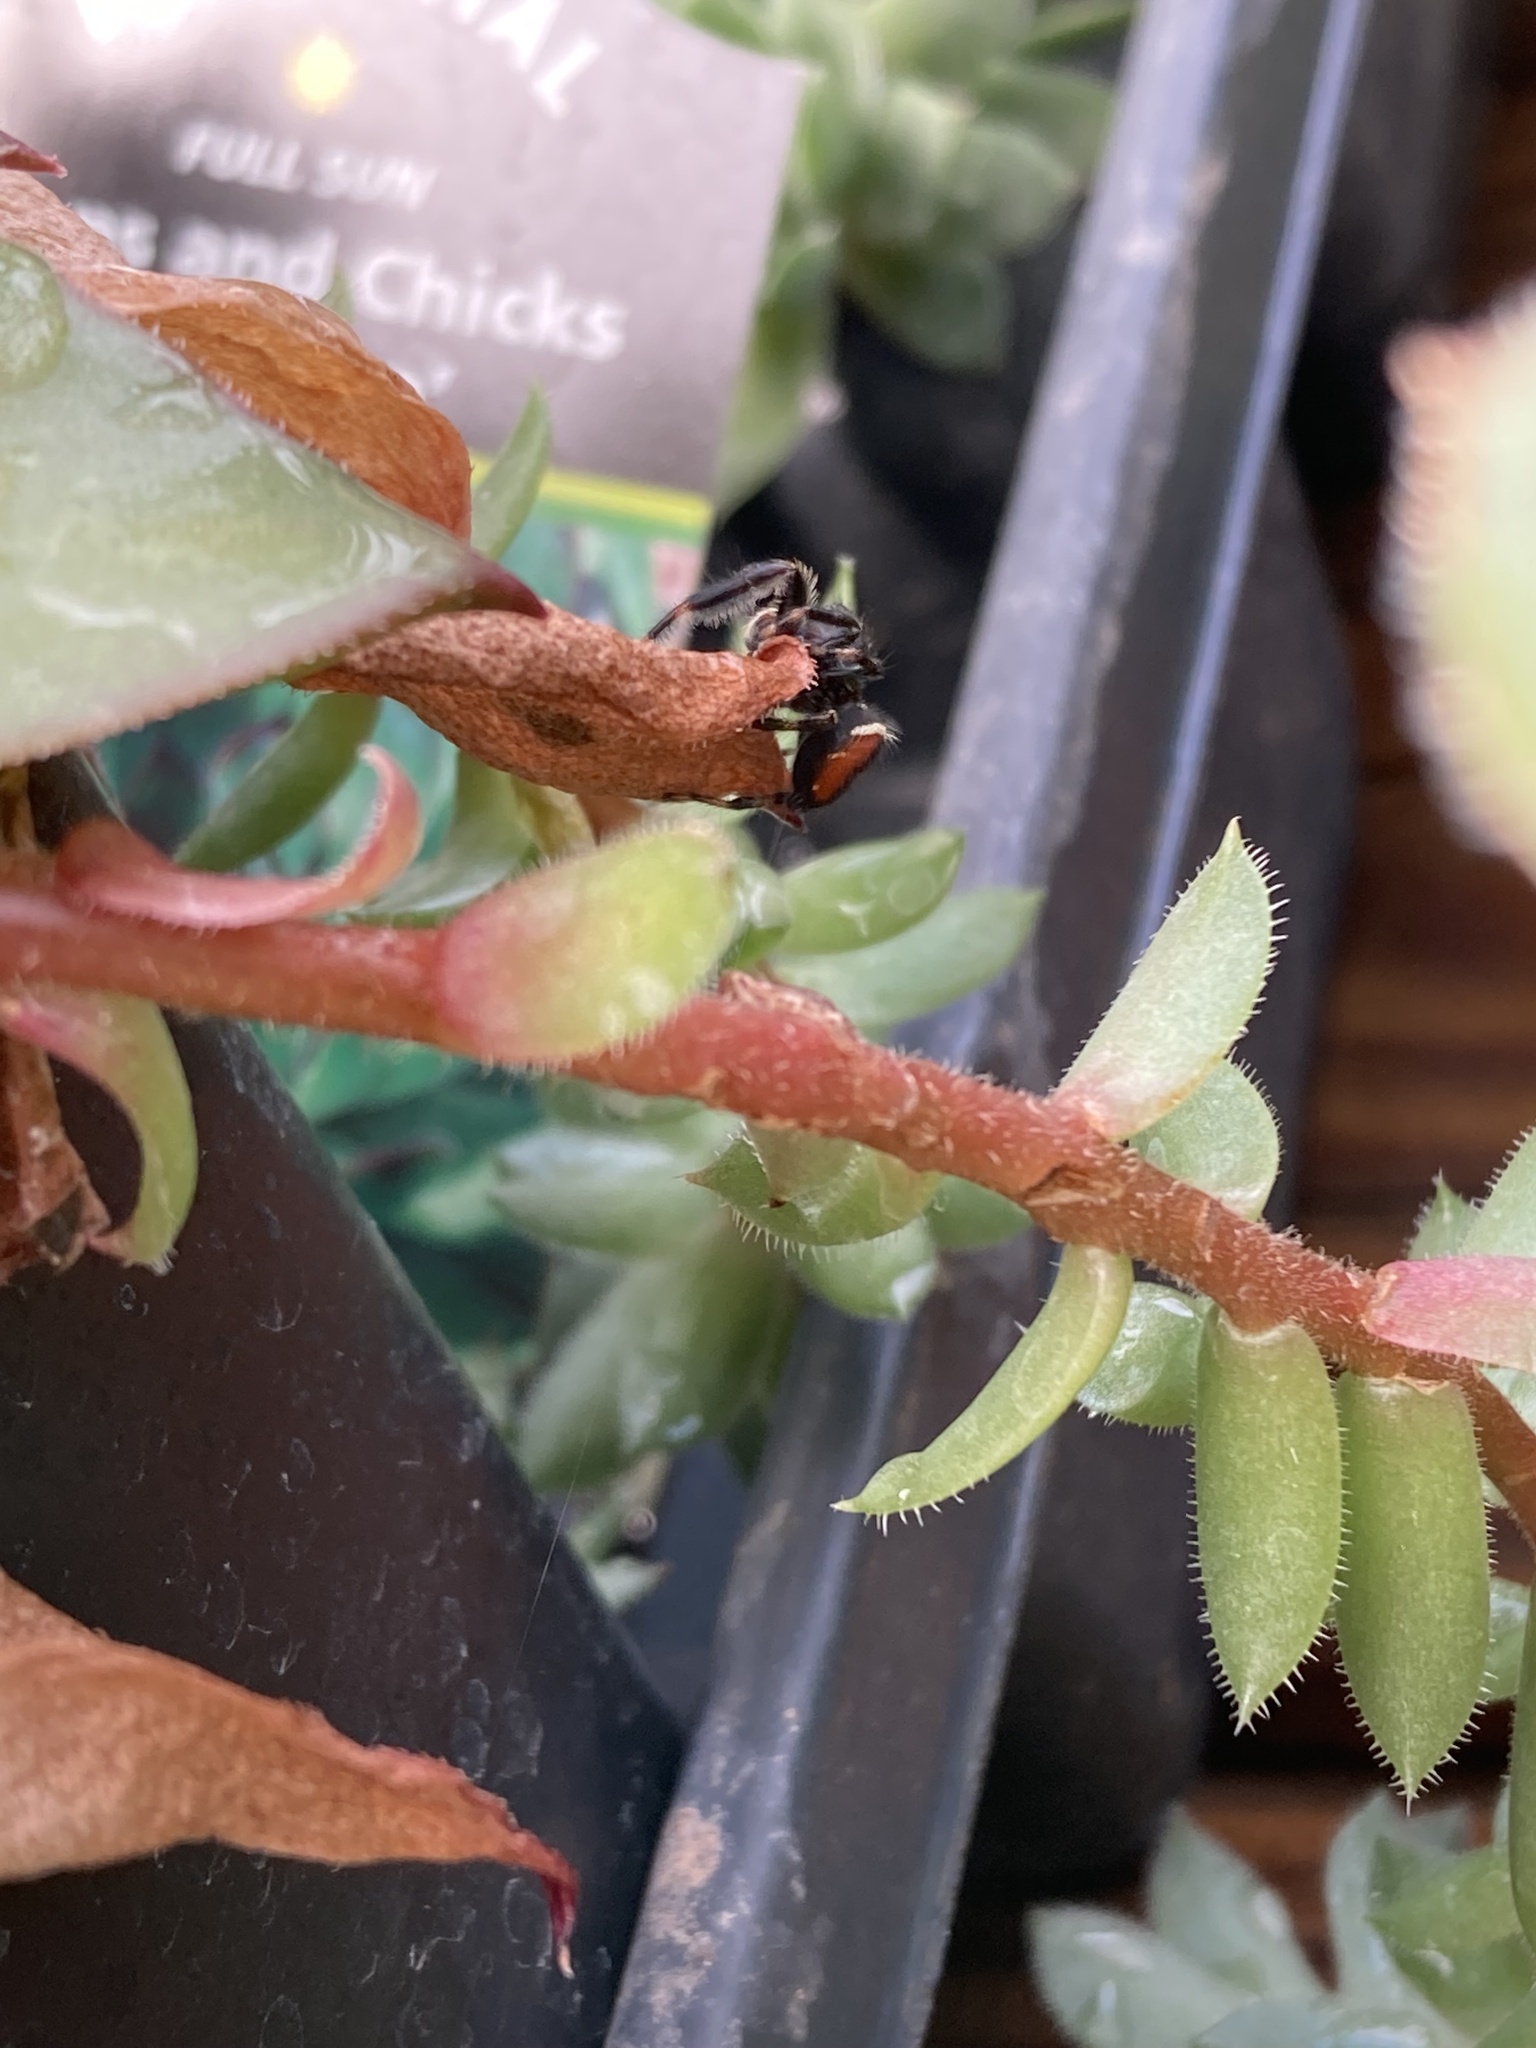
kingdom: Animalia
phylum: Arthropoda
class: Arachnida
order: Araneae
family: Salticidae
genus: Phidippus
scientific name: Phidippus clarus
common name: Brilliant jumping spider
